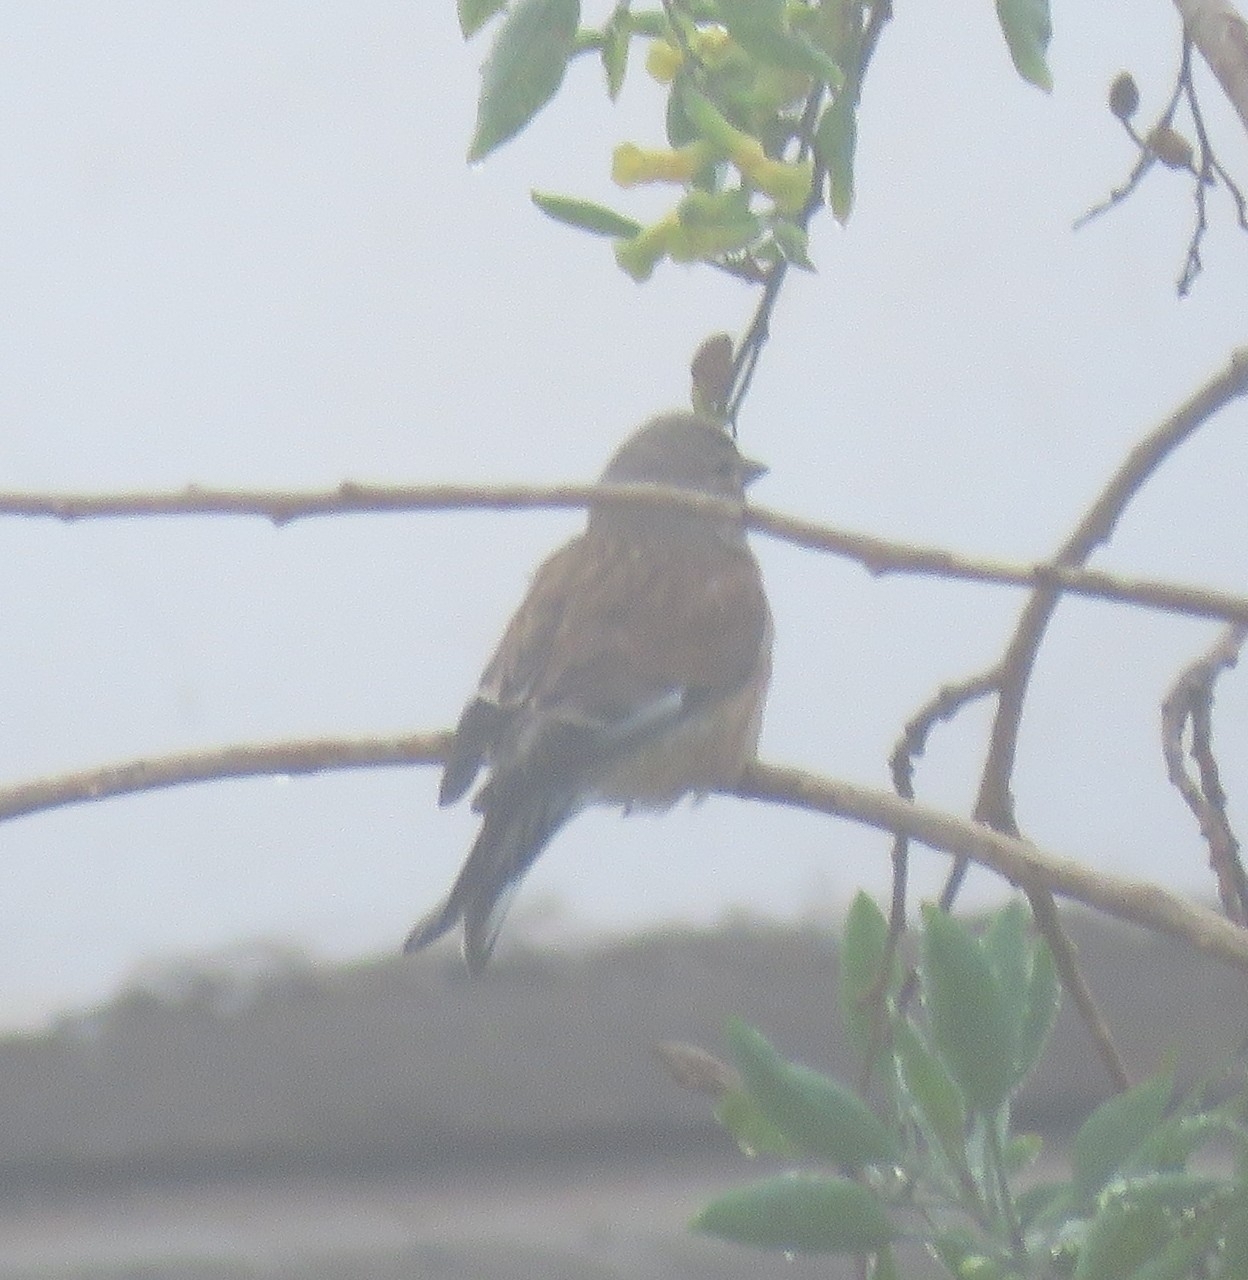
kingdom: Animalia
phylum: Chordata
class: Aves
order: Passeriformes
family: Fringillidae
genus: Linaria
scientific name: Linaria cannabina
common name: Common linnet
